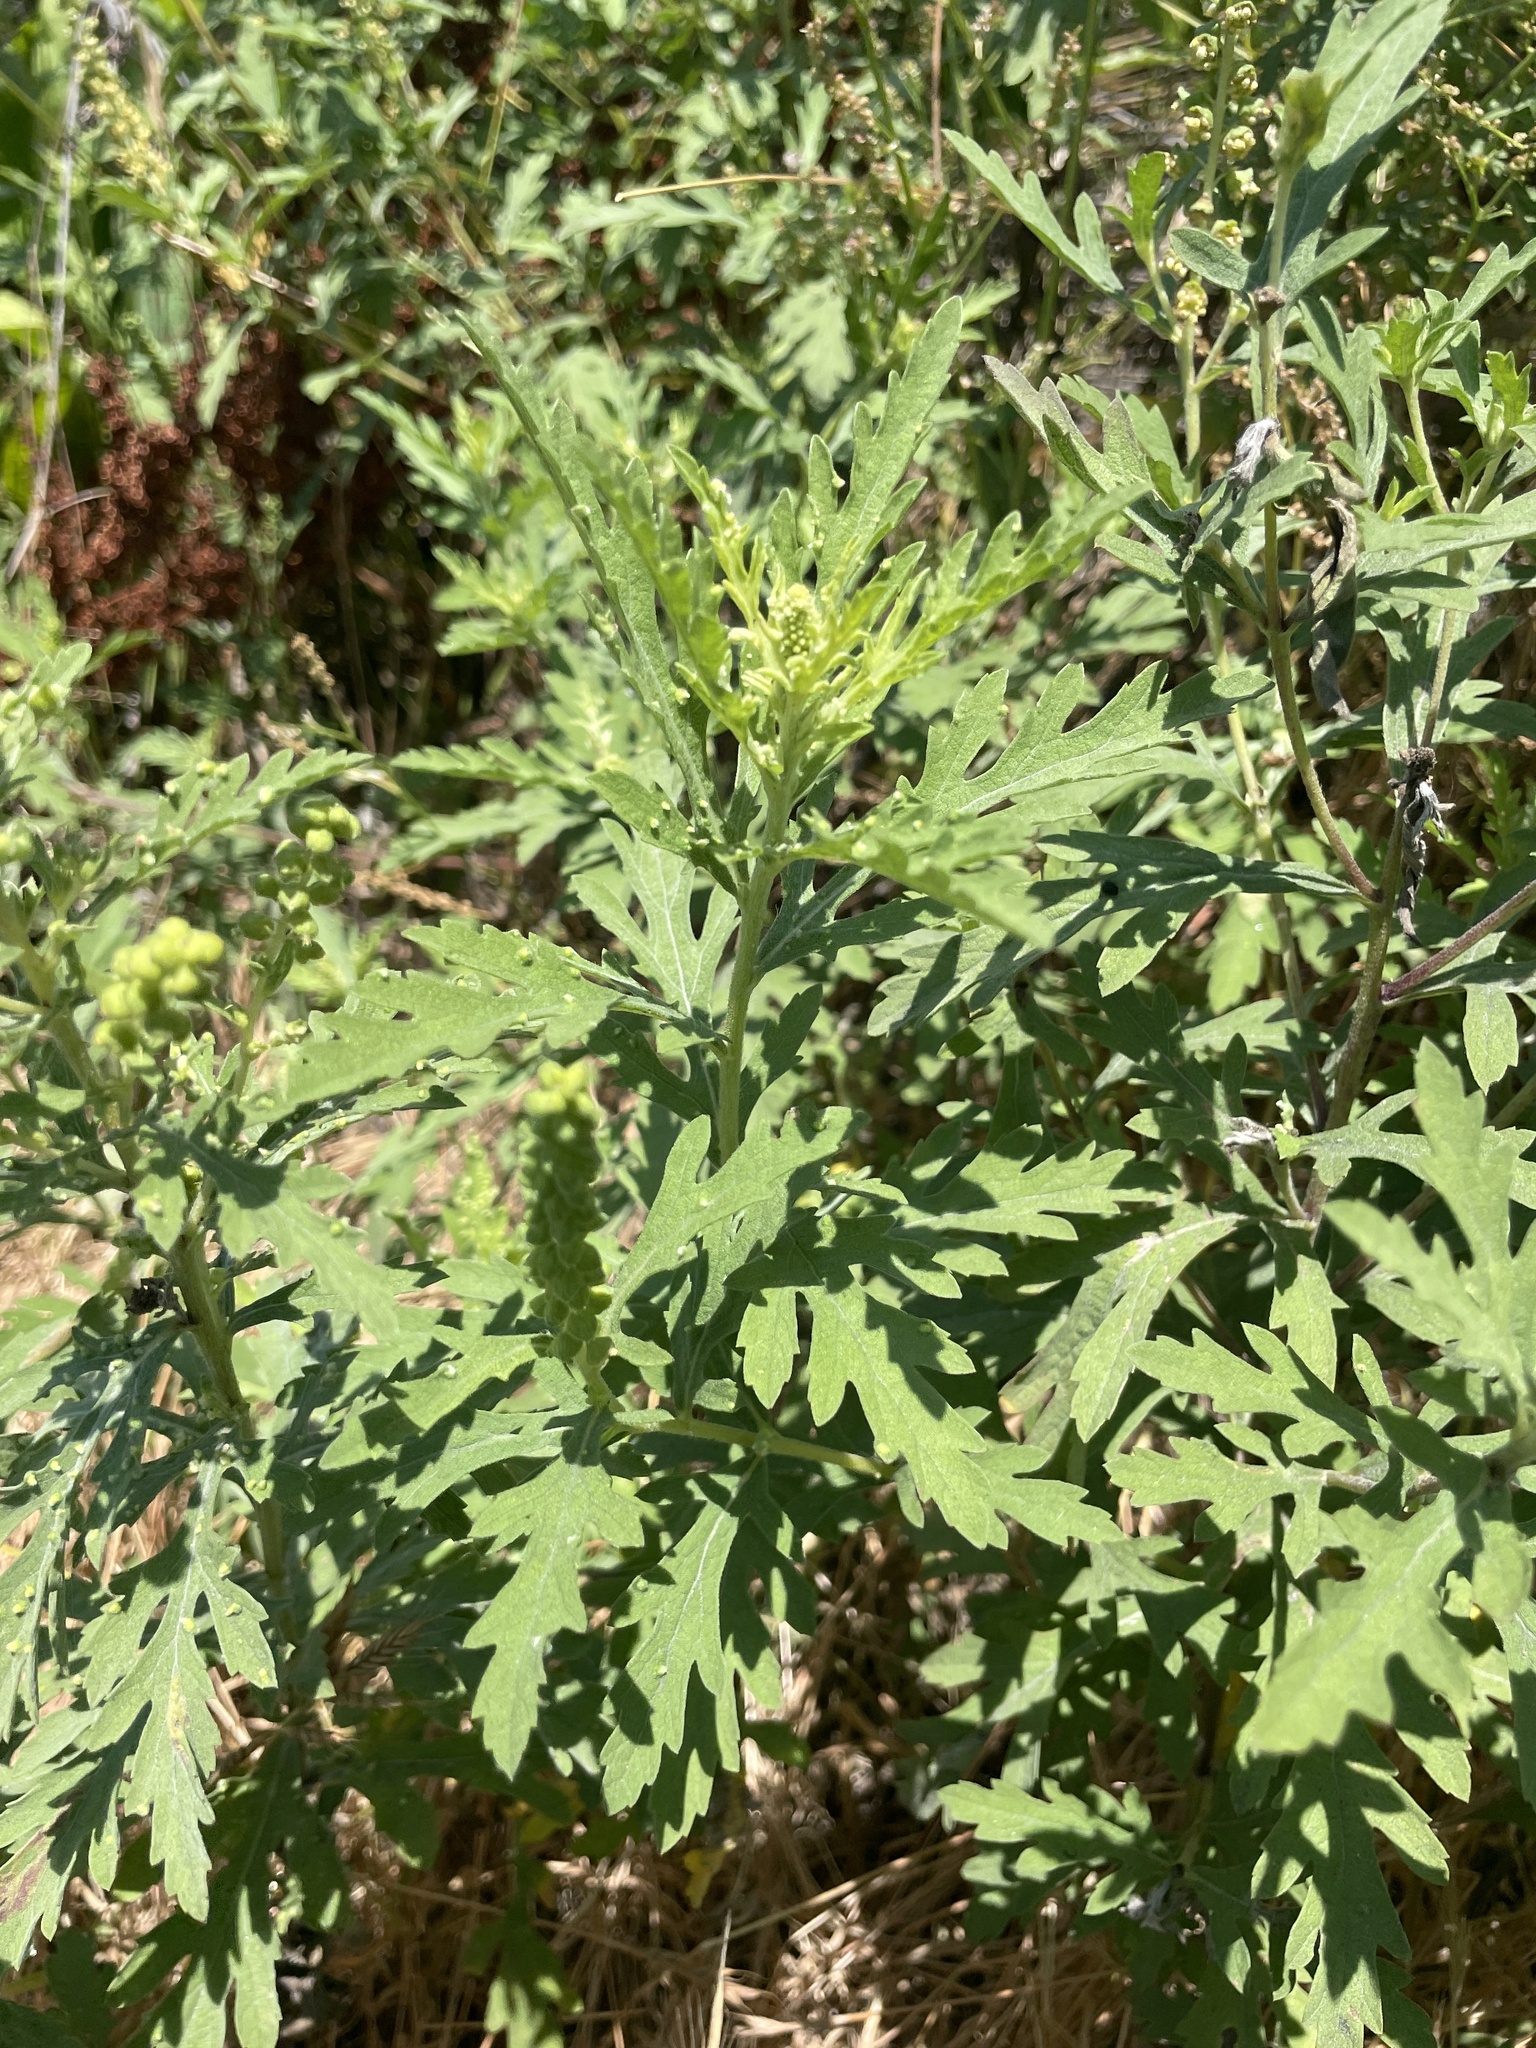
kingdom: Plantae
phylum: Tracheophyta
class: Magnoliopsida
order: Asterales
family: Asteraceae
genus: Ambrosia
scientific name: Ambrosia psilostachya
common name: Perennial ragweed
